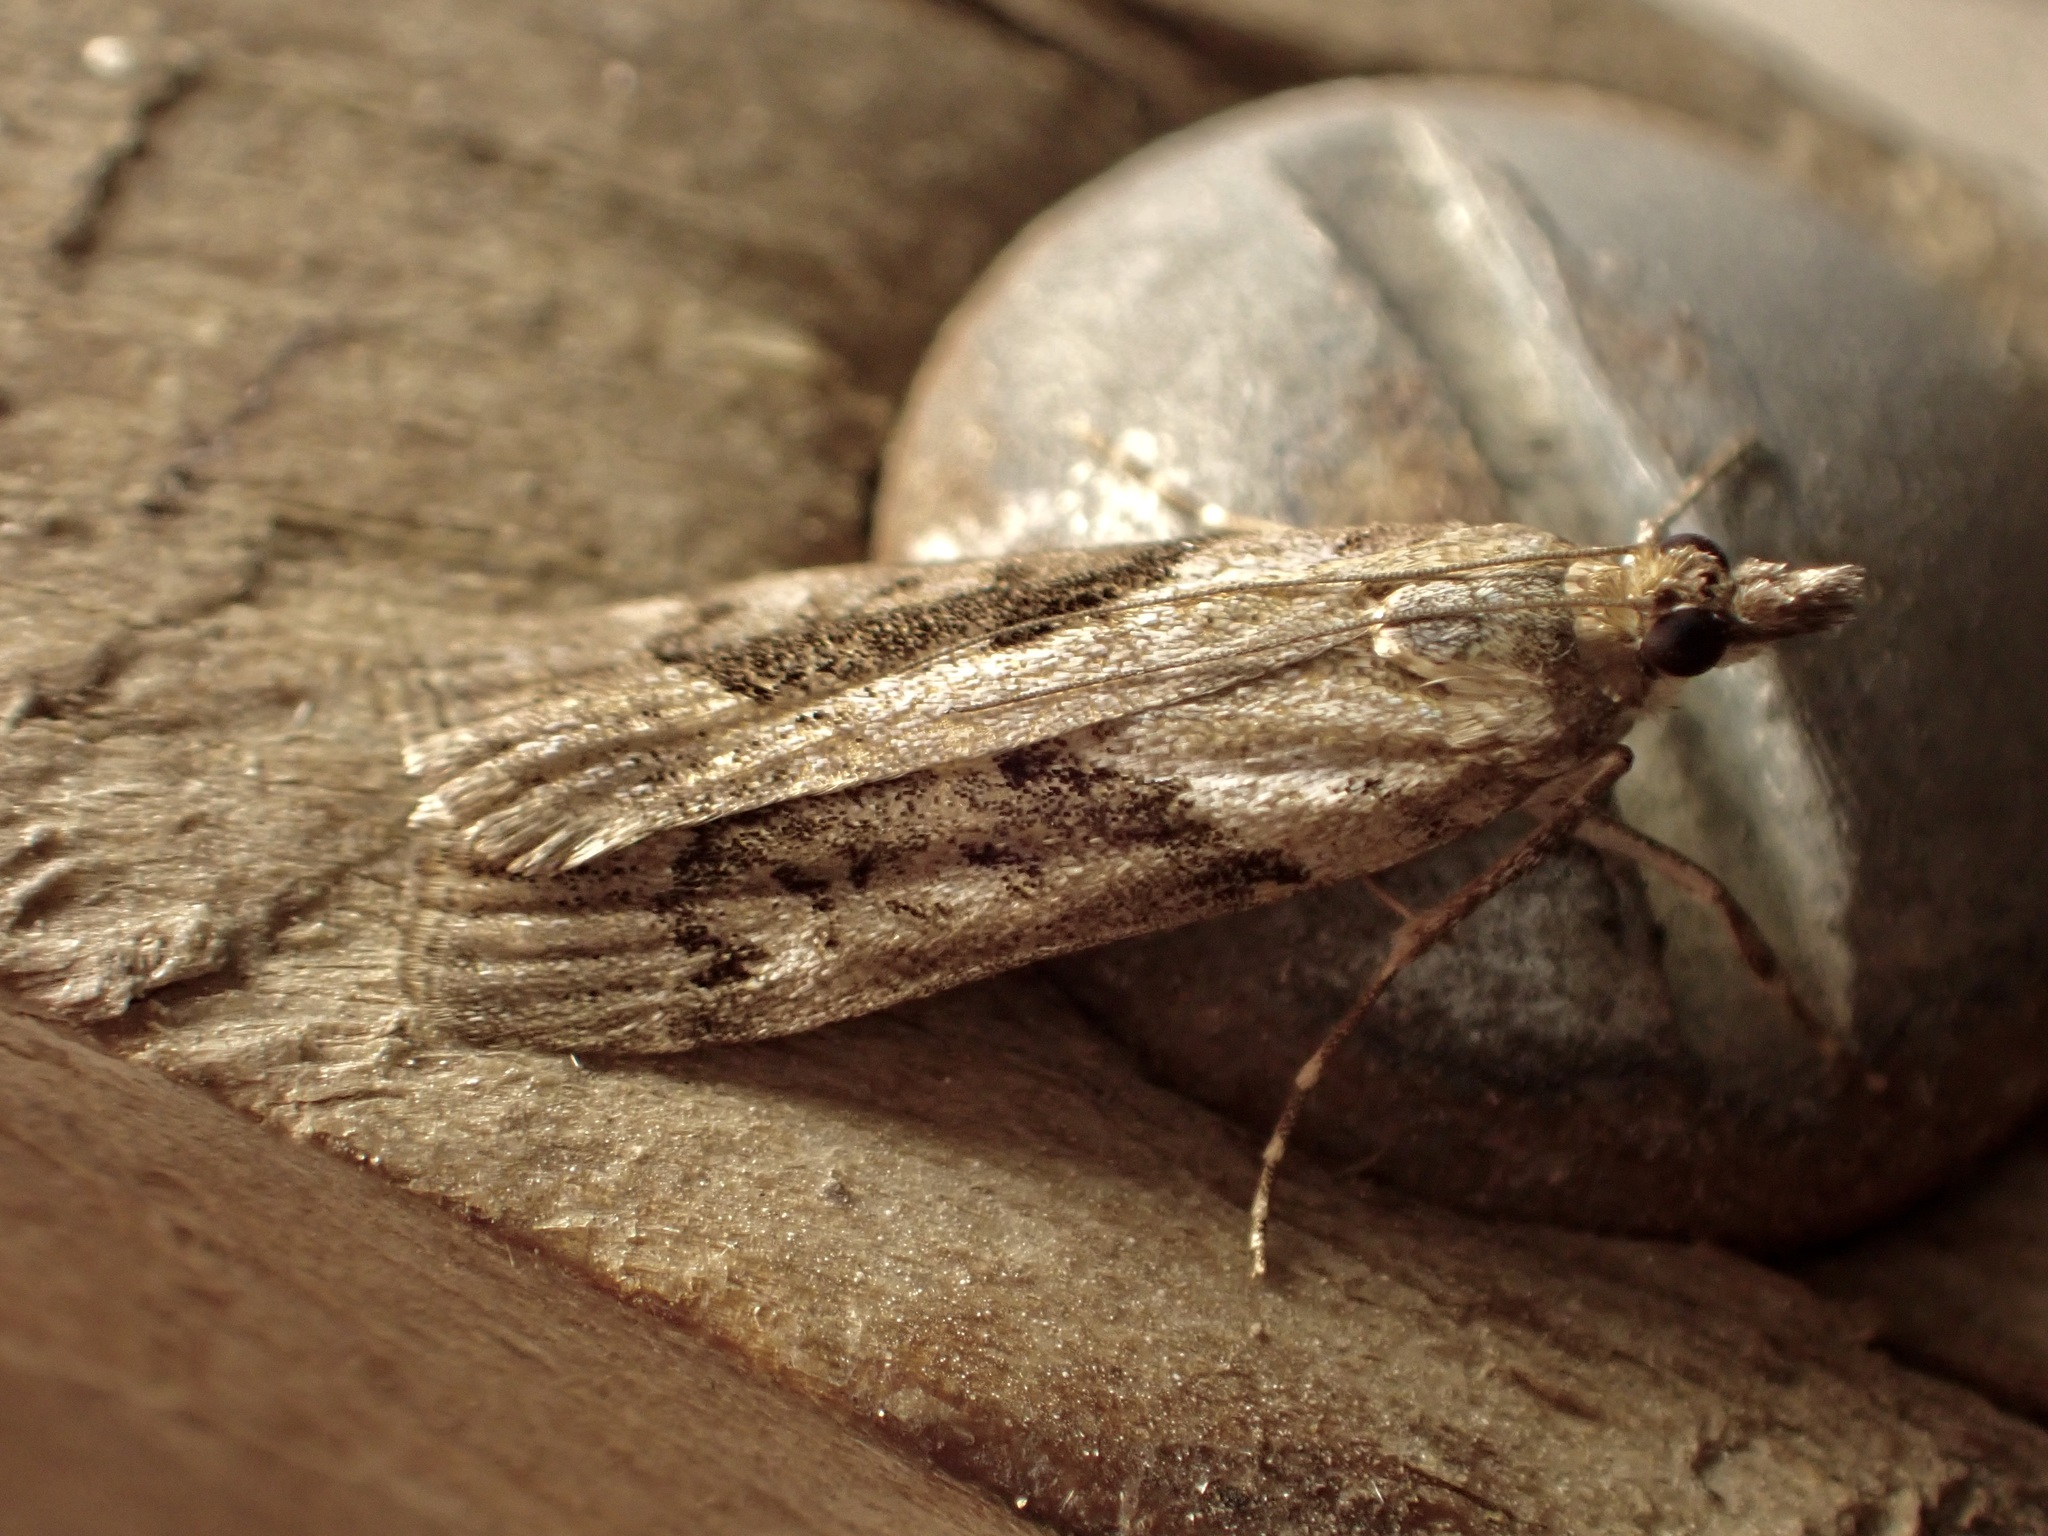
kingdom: Animalia
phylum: Arthropoda
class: Insecta
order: Lepidoptera
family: Crambidae
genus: Eudonia
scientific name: Eudonia submarginalis
